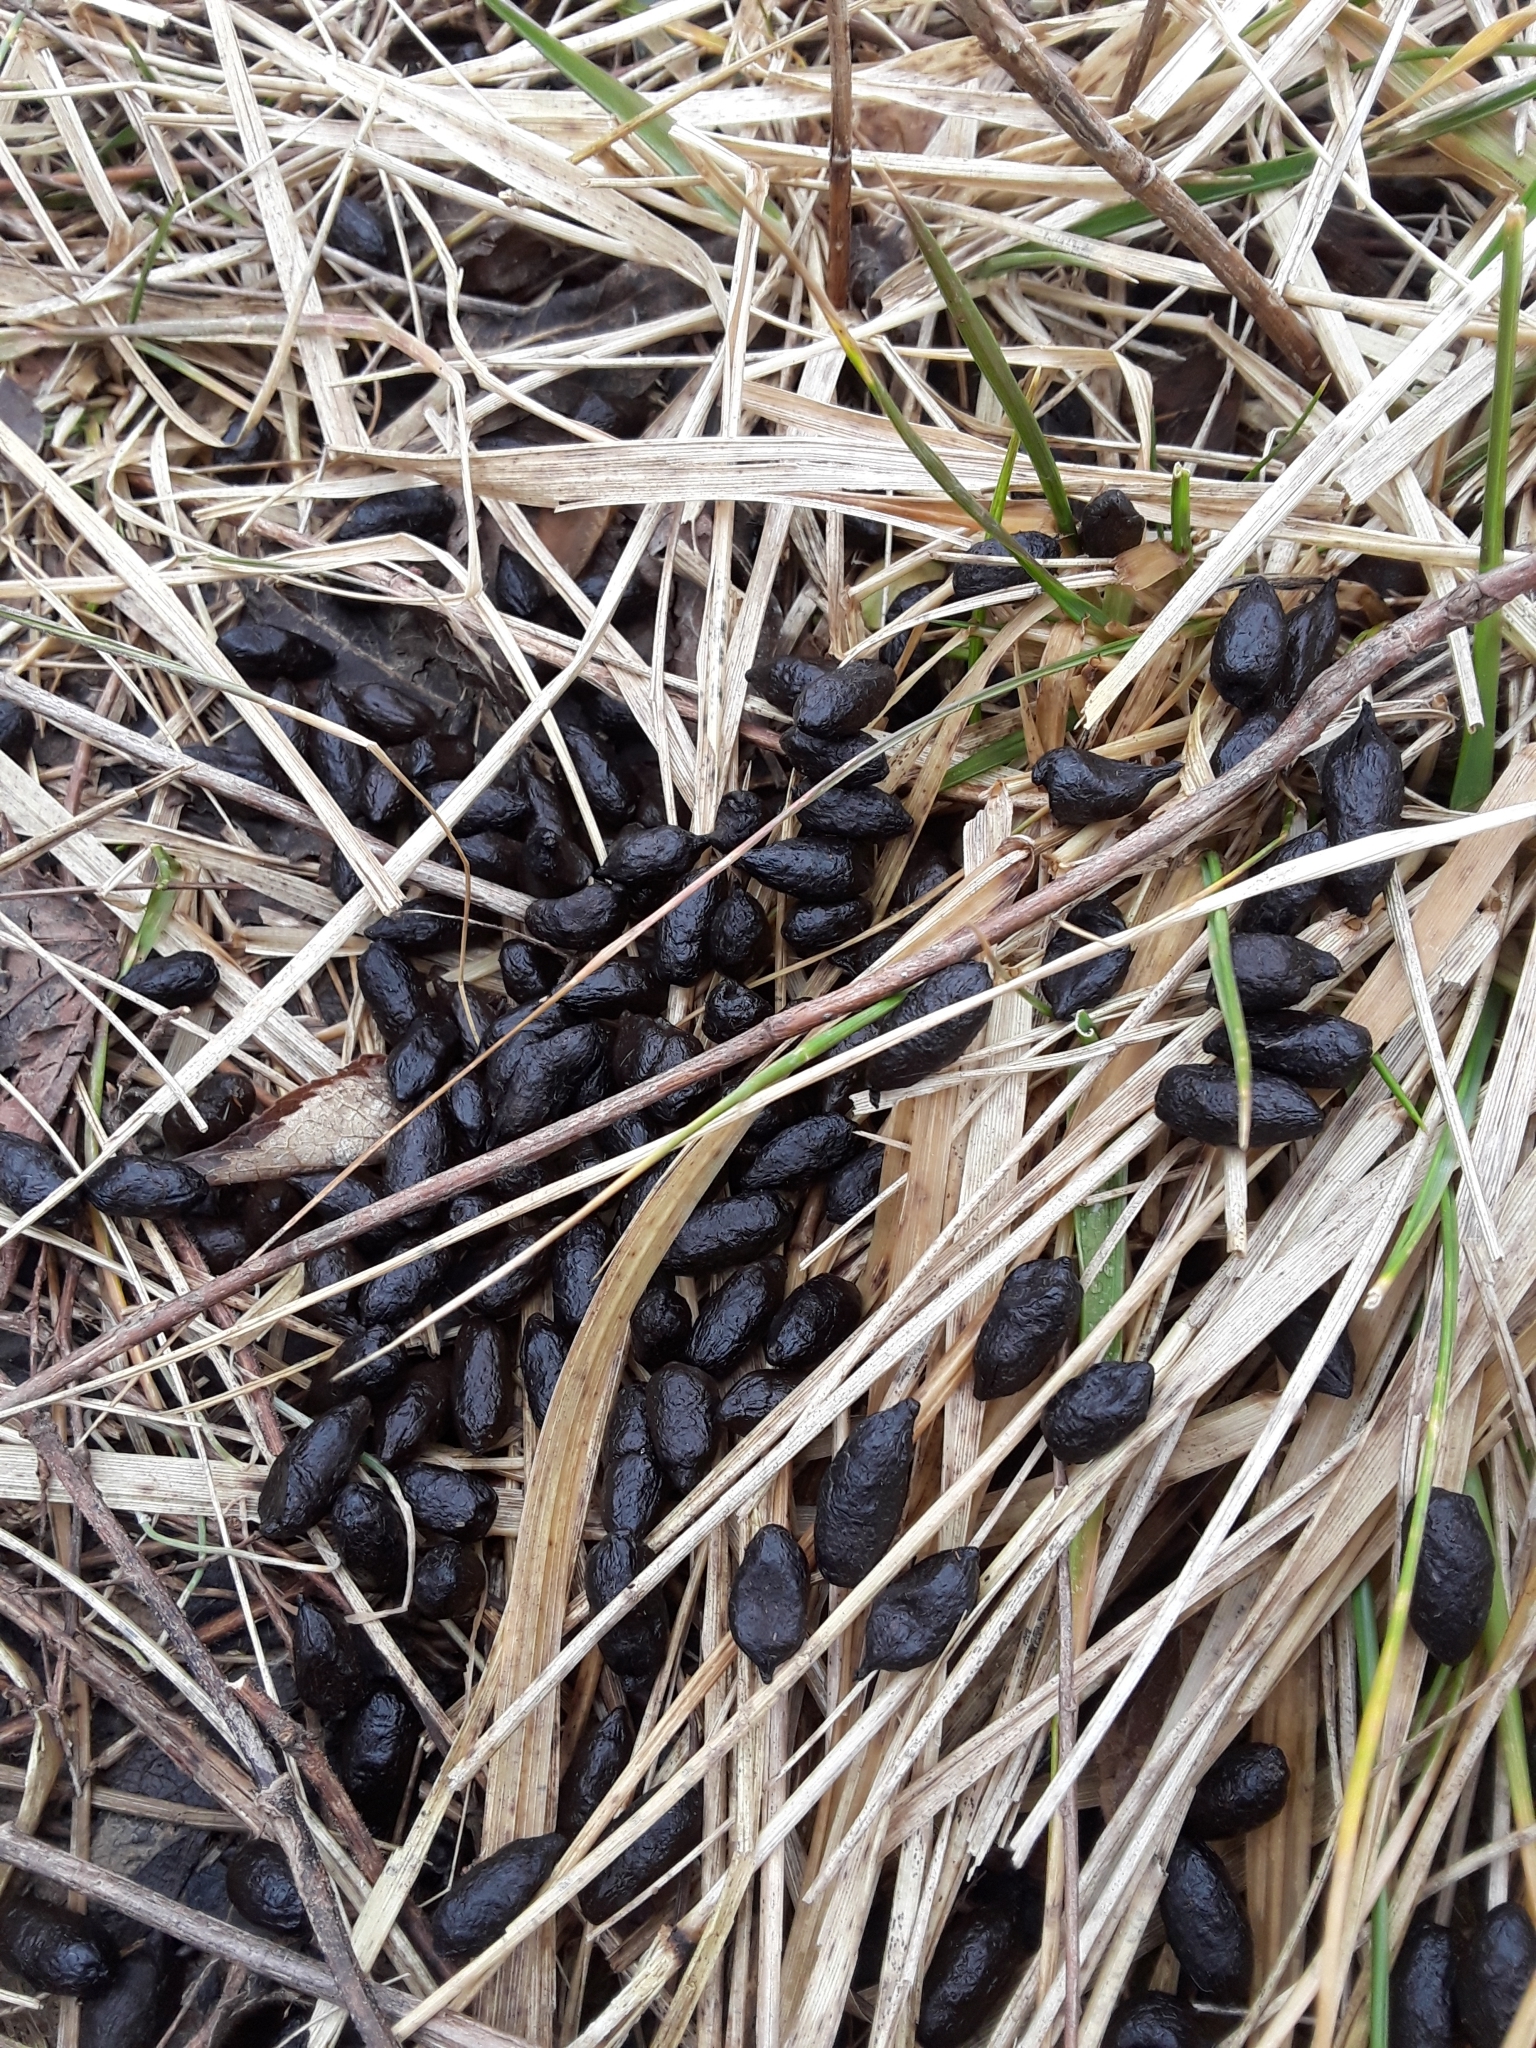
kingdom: Animalia
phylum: Chordata
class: Mammalia
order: Artiodactyla
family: Cervidae
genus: Odocoileus
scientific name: Odocoileus virginianus
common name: White-tailed deer
